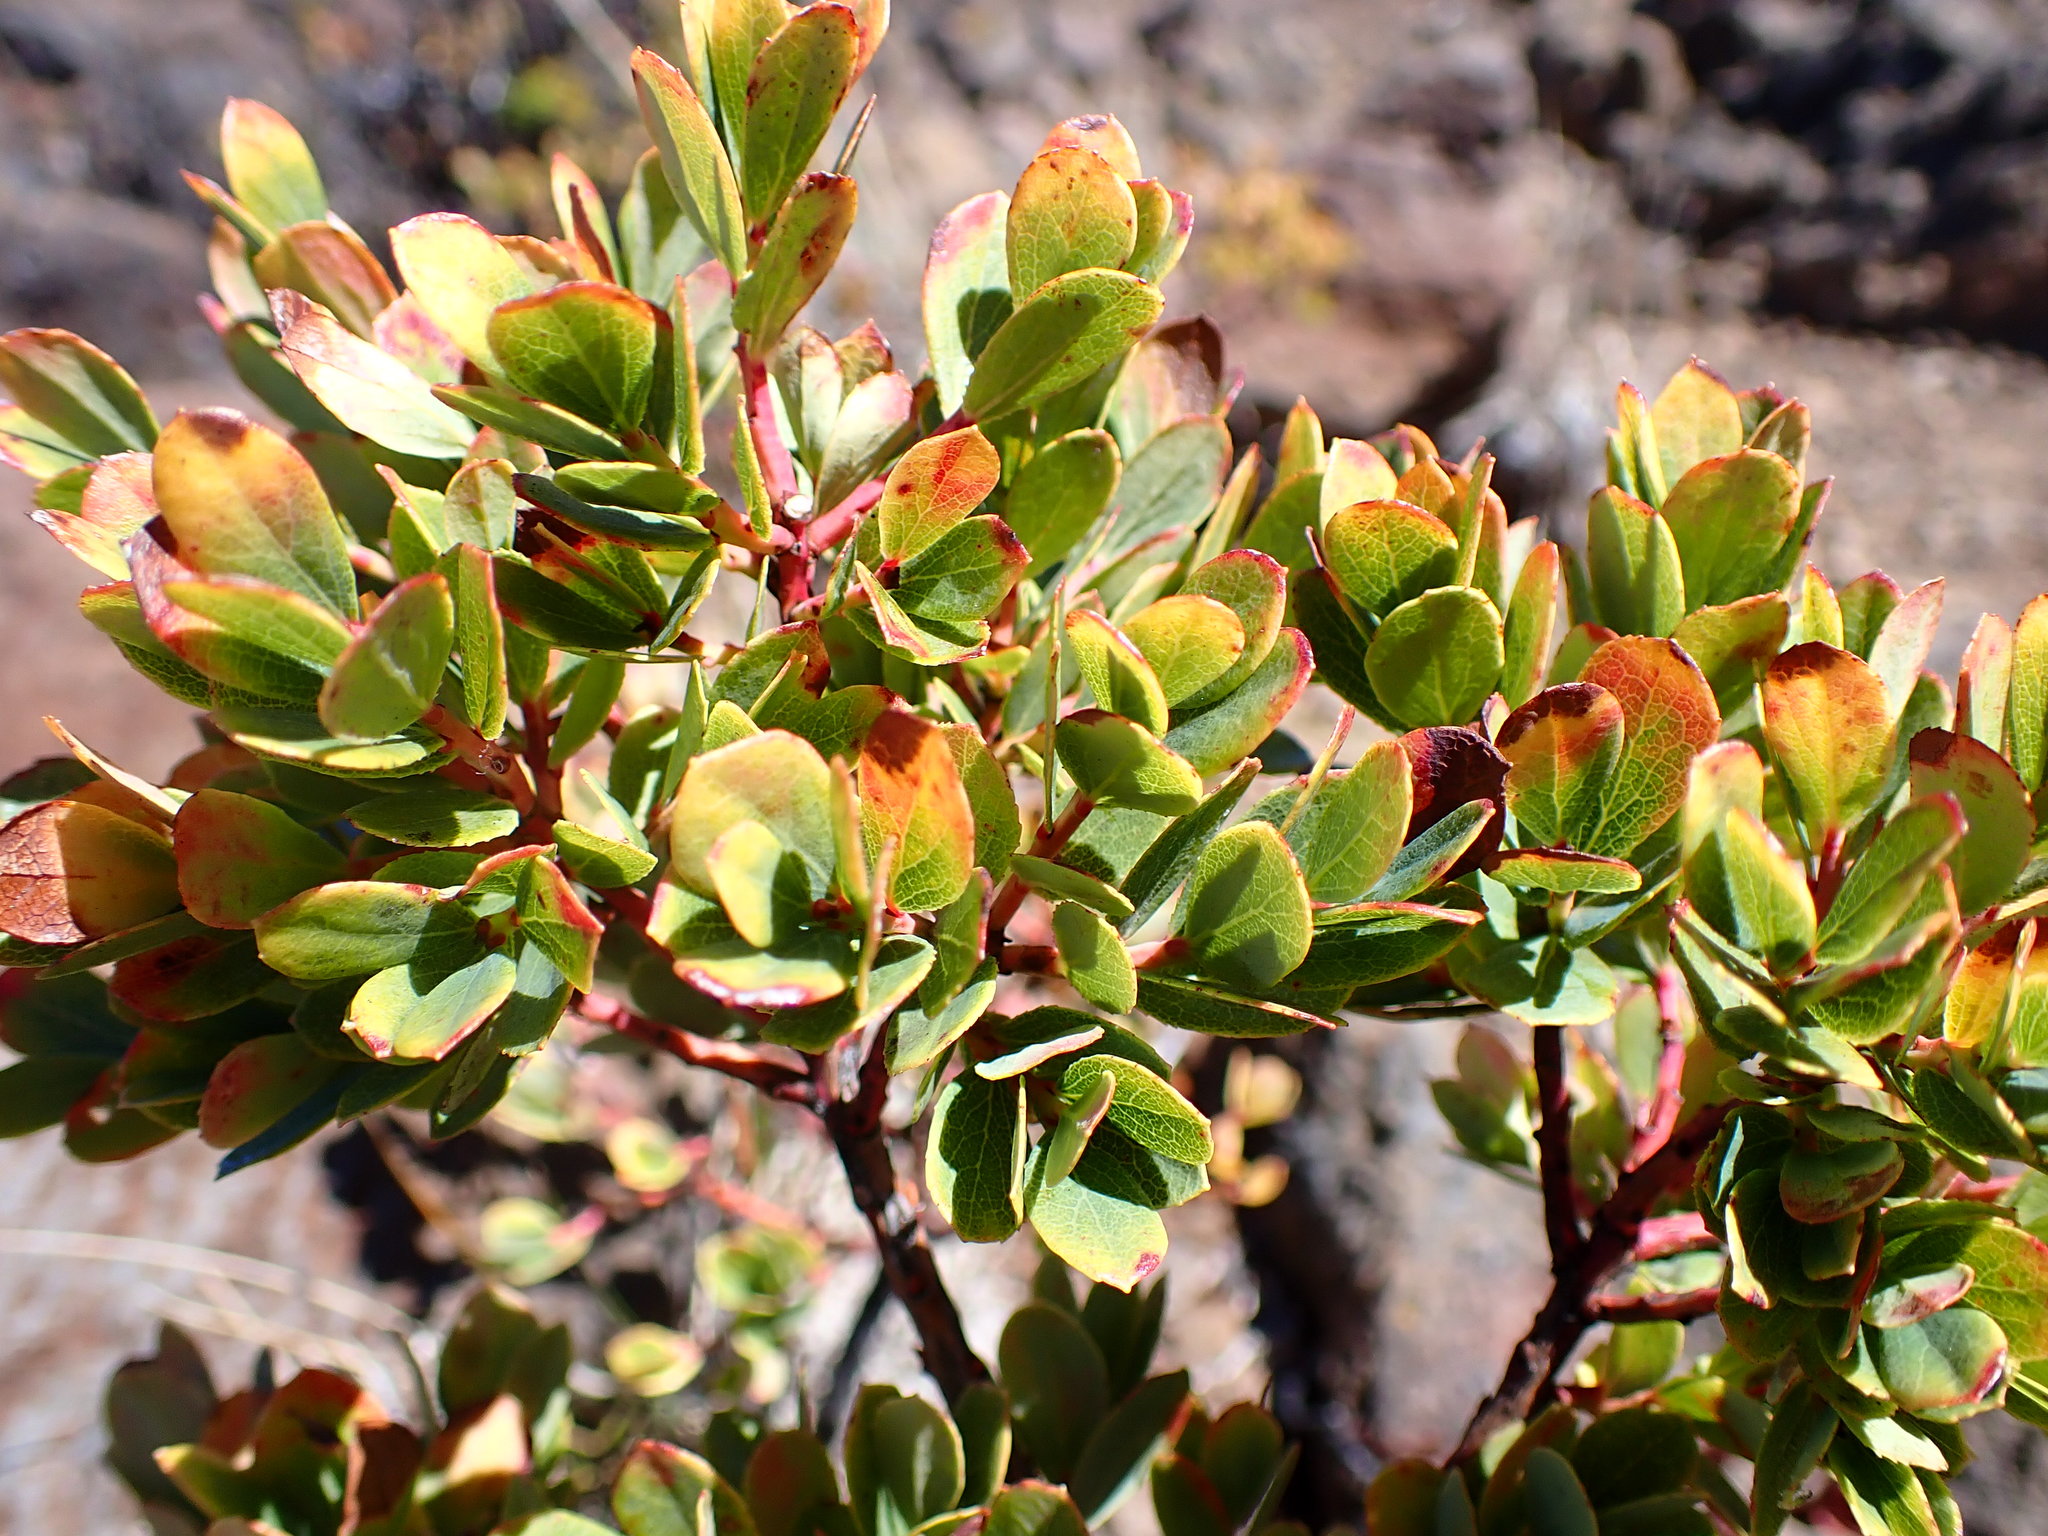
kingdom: Plantae
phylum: Tracheophyta
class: Magnoliopsida
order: Ericales
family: Ericaceae
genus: Vaccinium
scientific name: Vaccinium reticulatum
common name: Ohelo
